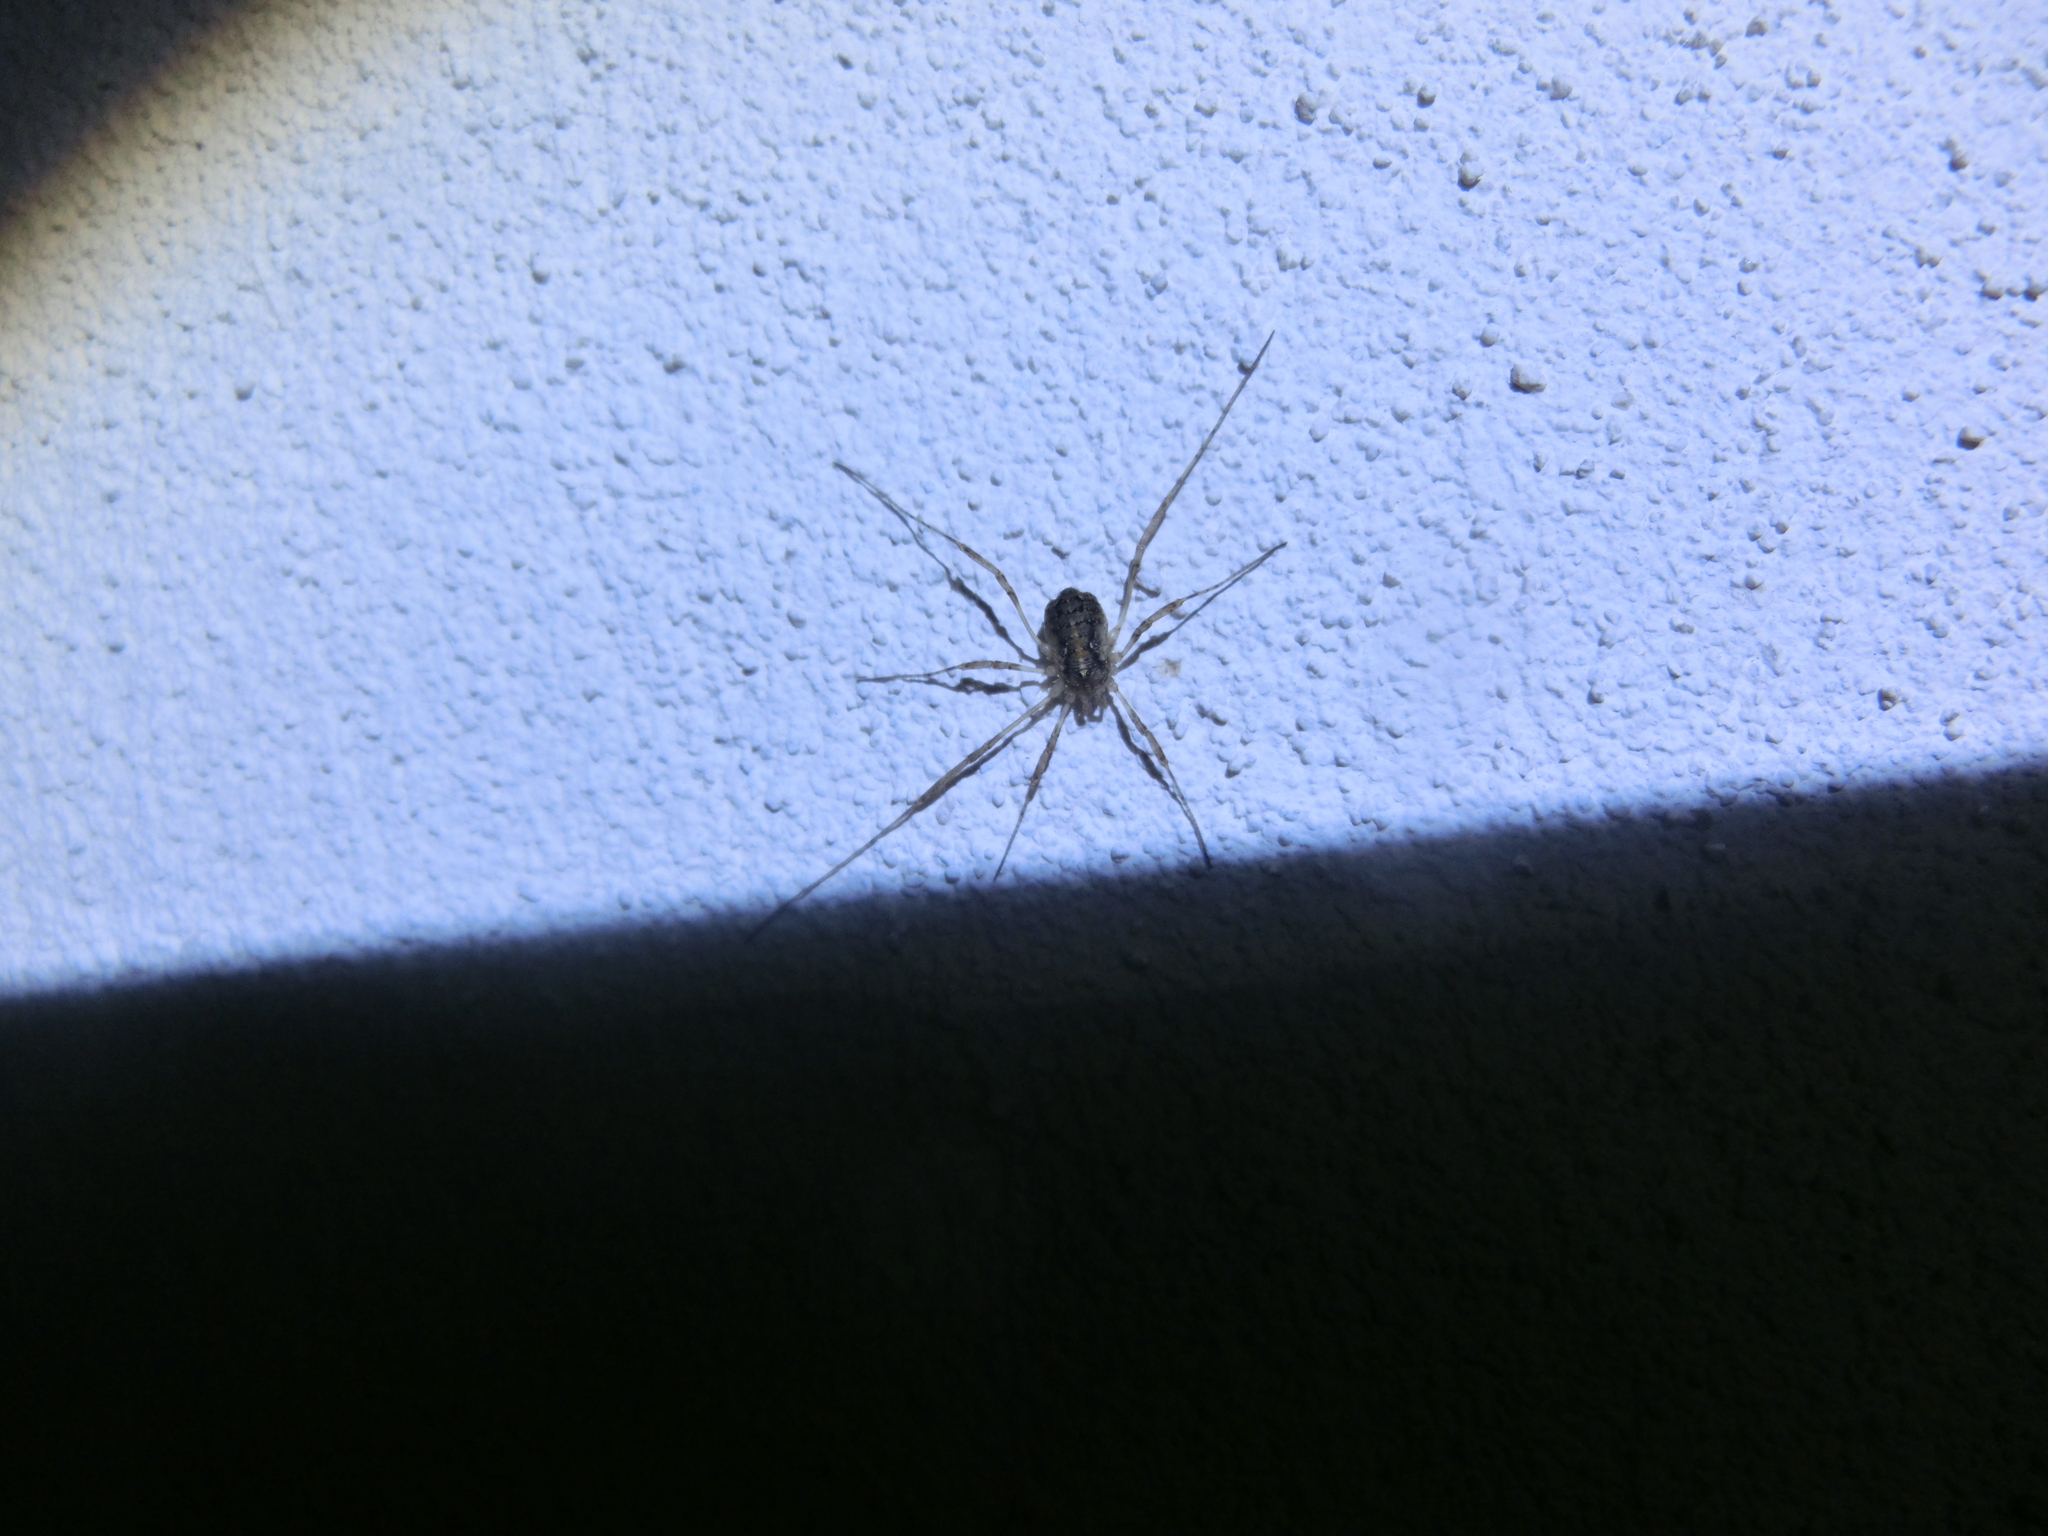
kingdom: Animalia
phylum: Arthropoda
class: Arachnida
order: Opiliones
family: Phalangiidae
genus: Paroligolophus
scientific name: Paroligolophus agrestis
